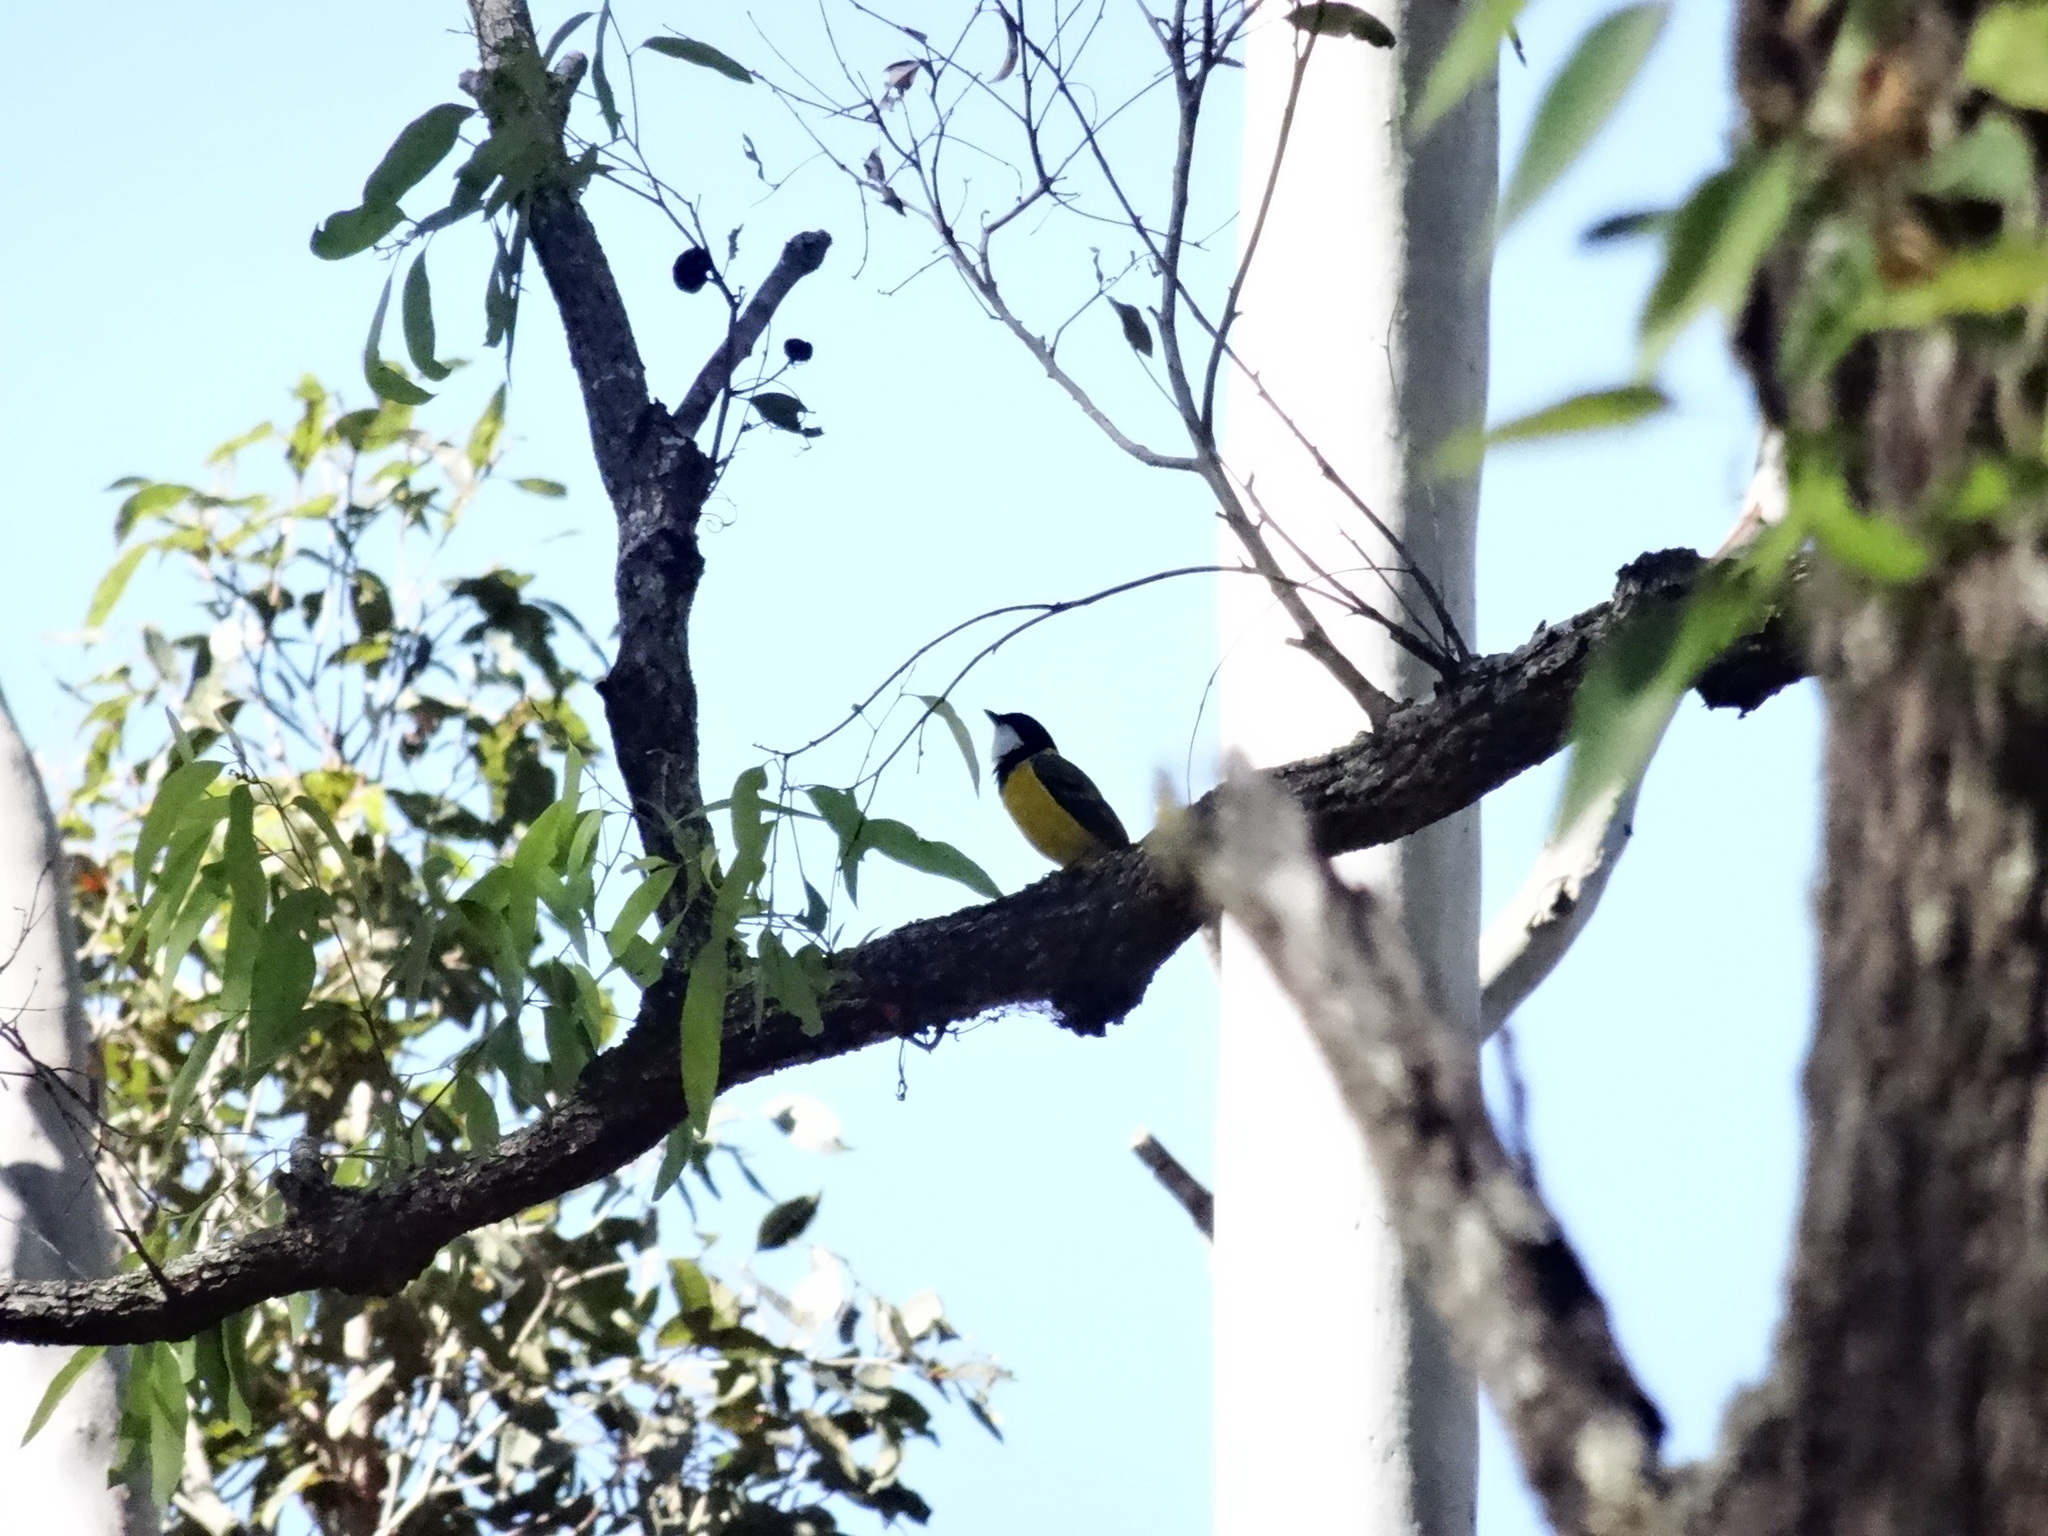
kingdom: Animalia
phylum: Chordata
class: Aves
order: Passeriformes
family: Pachycephalidae
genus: Pachycephala
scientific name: Pachycephala pectoralis
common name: Australian golden whistler
